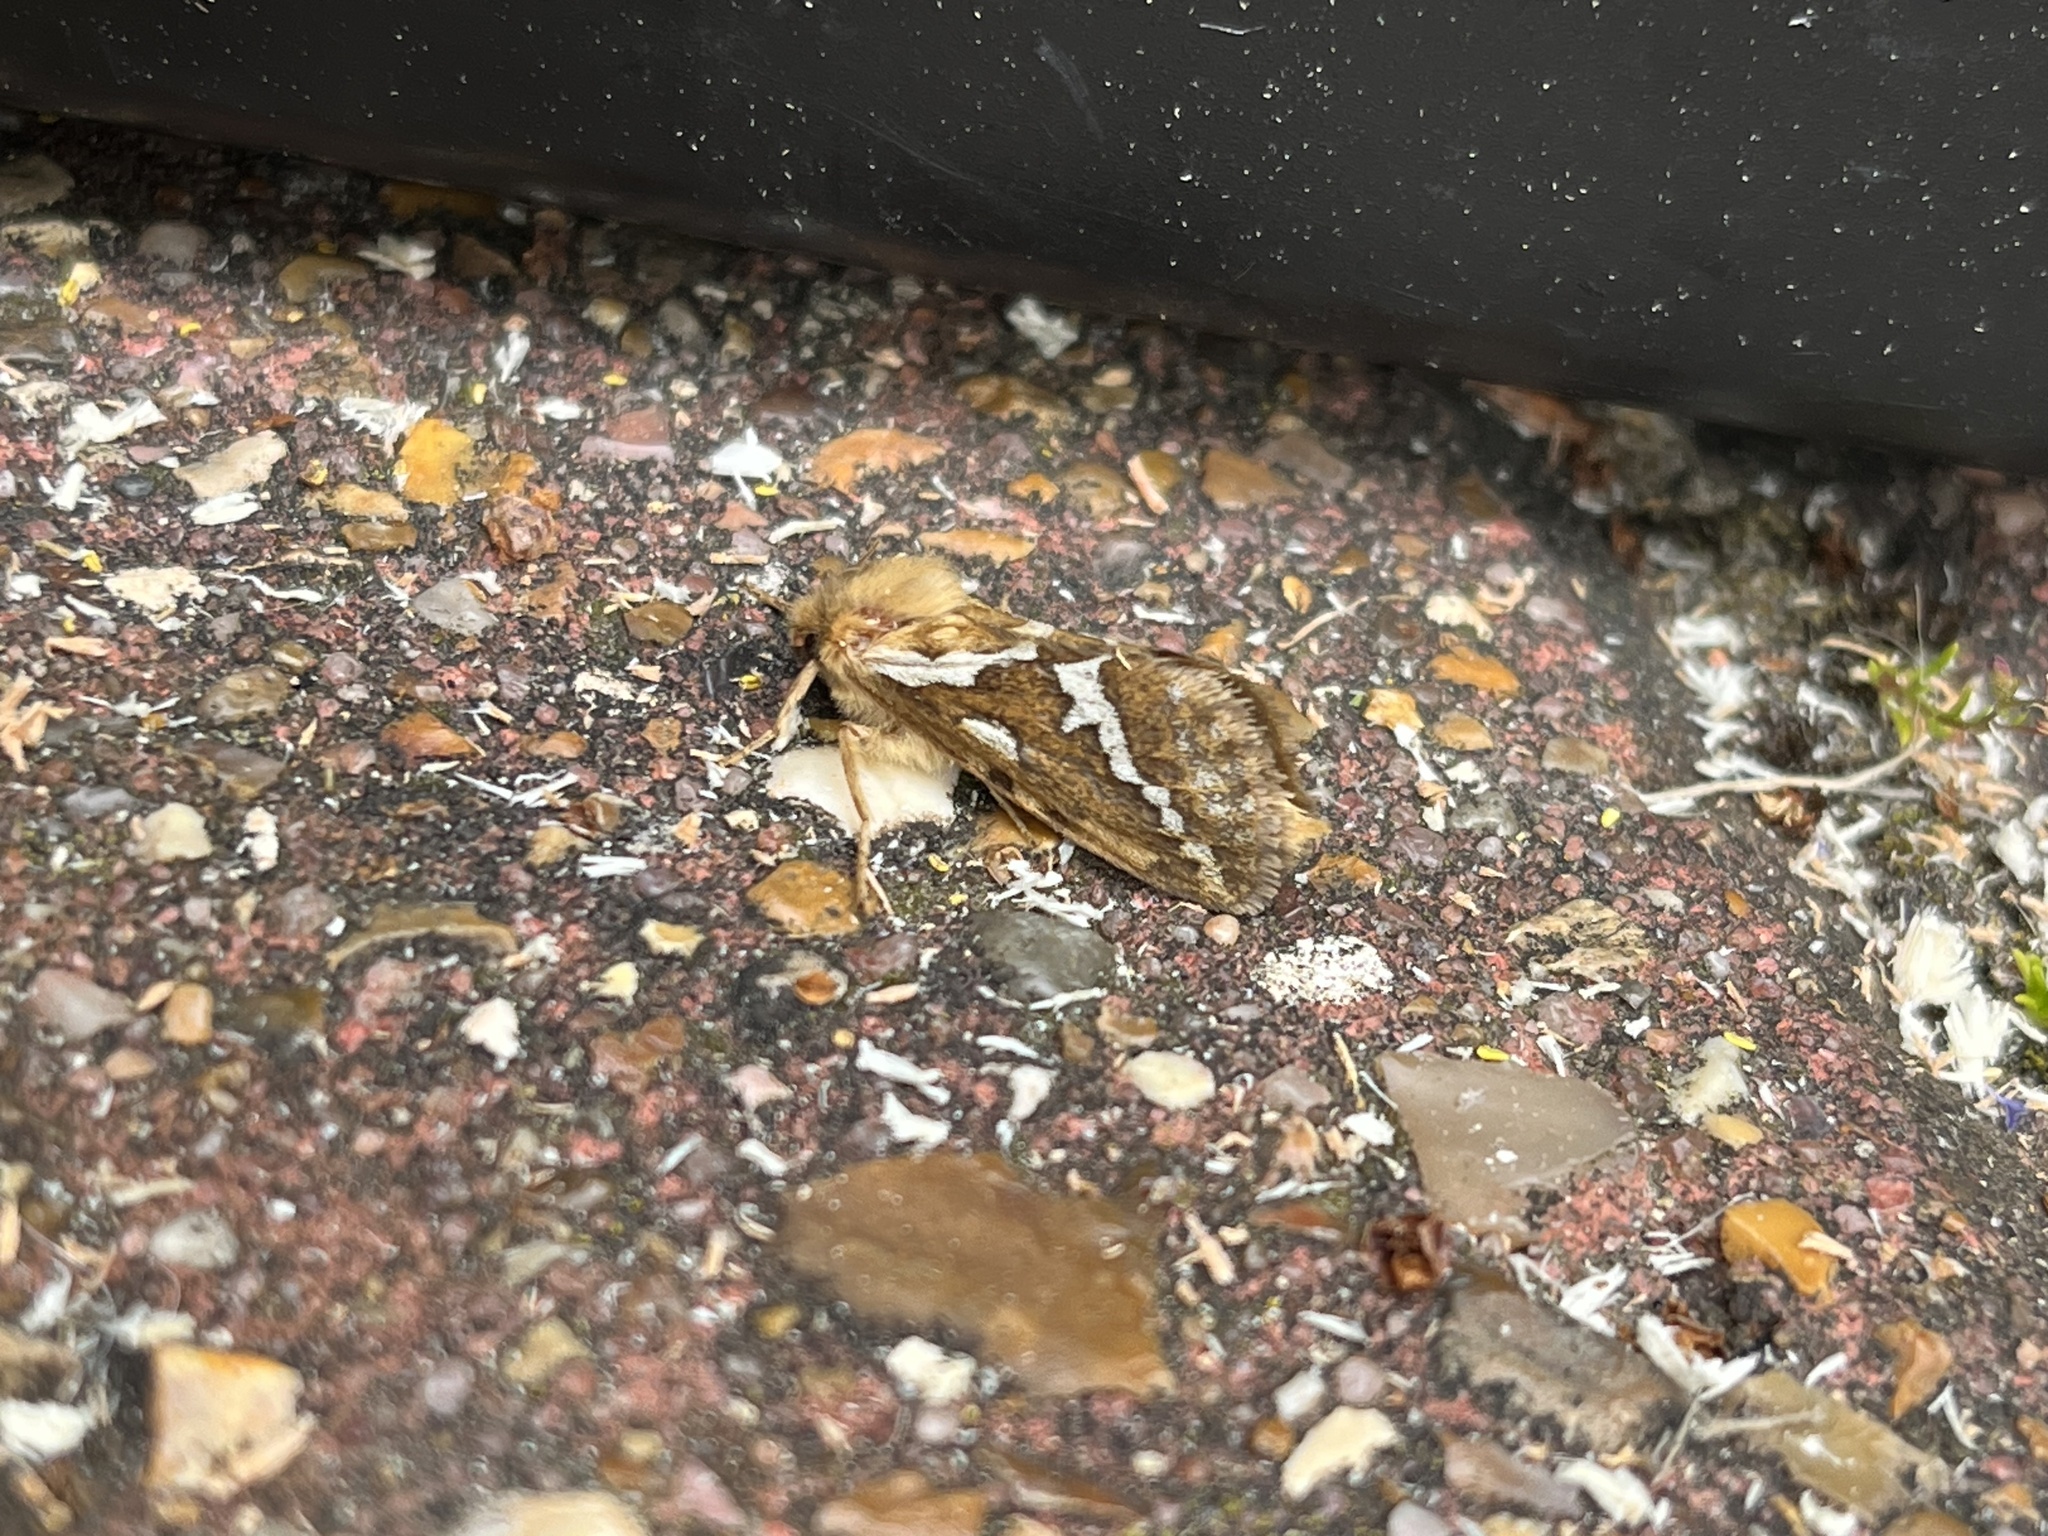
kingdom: Animalia
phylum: Arthropoda
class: Insecta
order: Lepidoptera
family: Hepialidae
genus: Korscheltellus
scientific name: Korscheltellus lupulina
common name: Common swift
